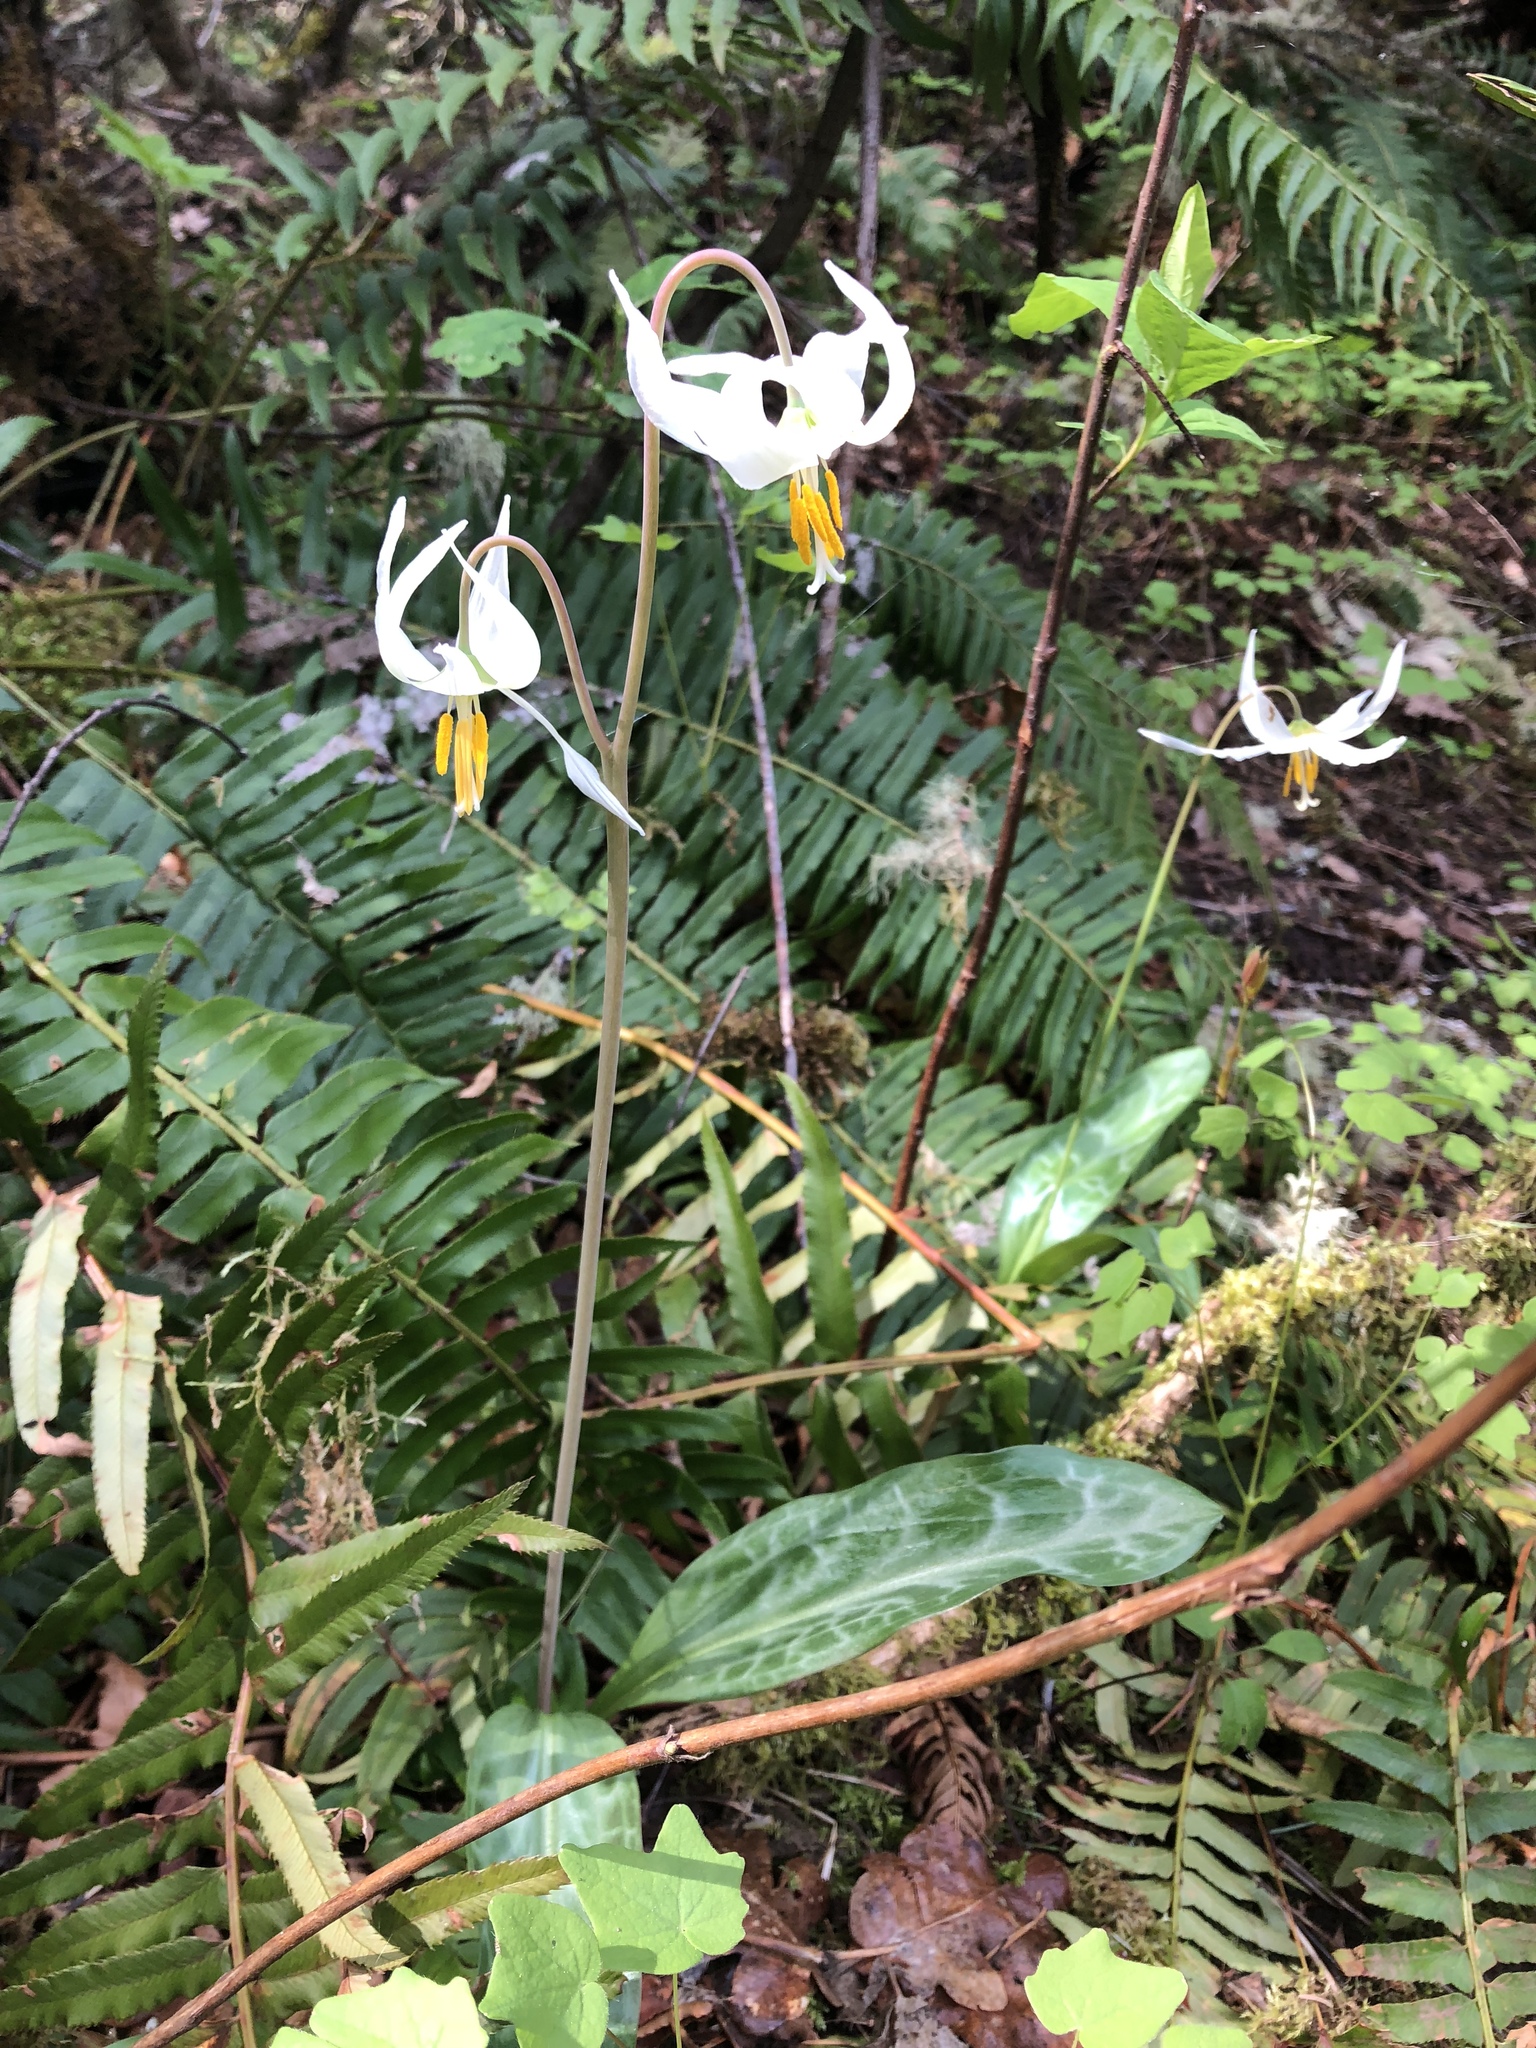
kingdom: Plantae
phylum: Tracheophyta
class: Liliopsida
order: Liliales
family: Liliaceae
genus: Erythronium
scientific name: Erythronium oregonum
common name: Giant adder's-tongue
